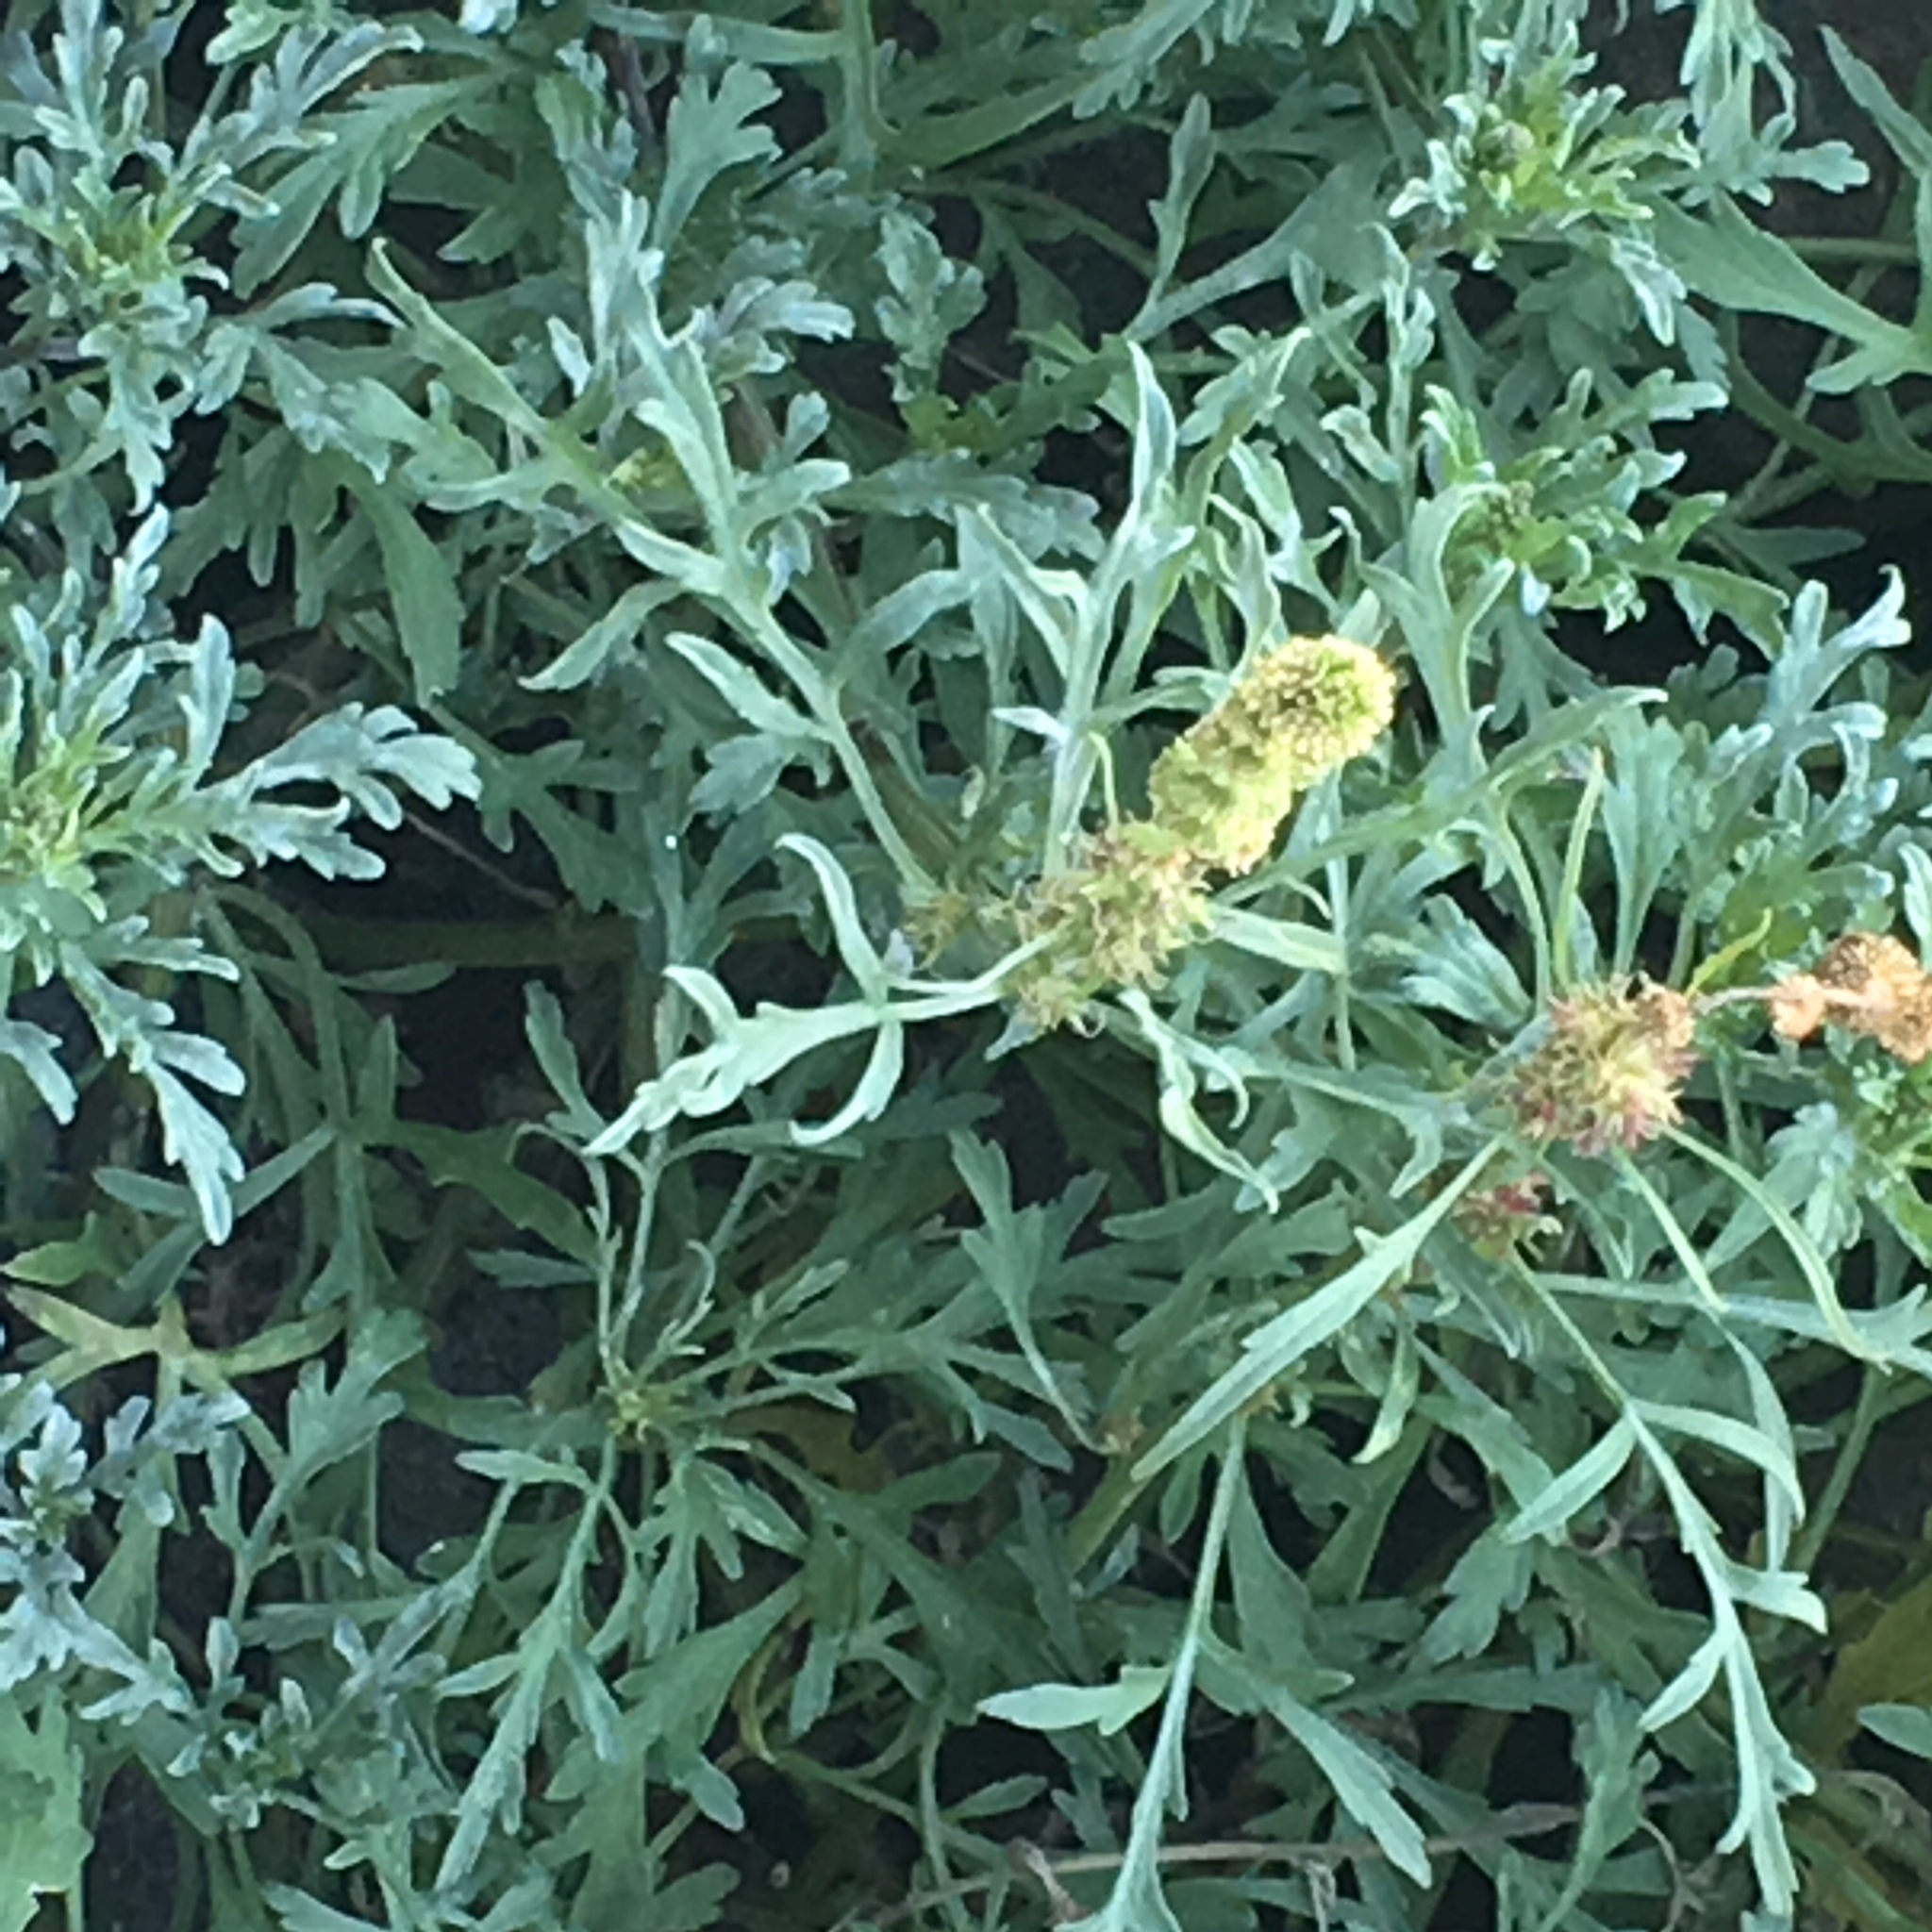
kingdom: Plantae
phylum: Tracheophyta
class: Magnoliopsida
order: Asterales
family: Asteraceae
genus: Ambrosia
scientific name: Ambrosia chamissonis
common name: Beachbur
